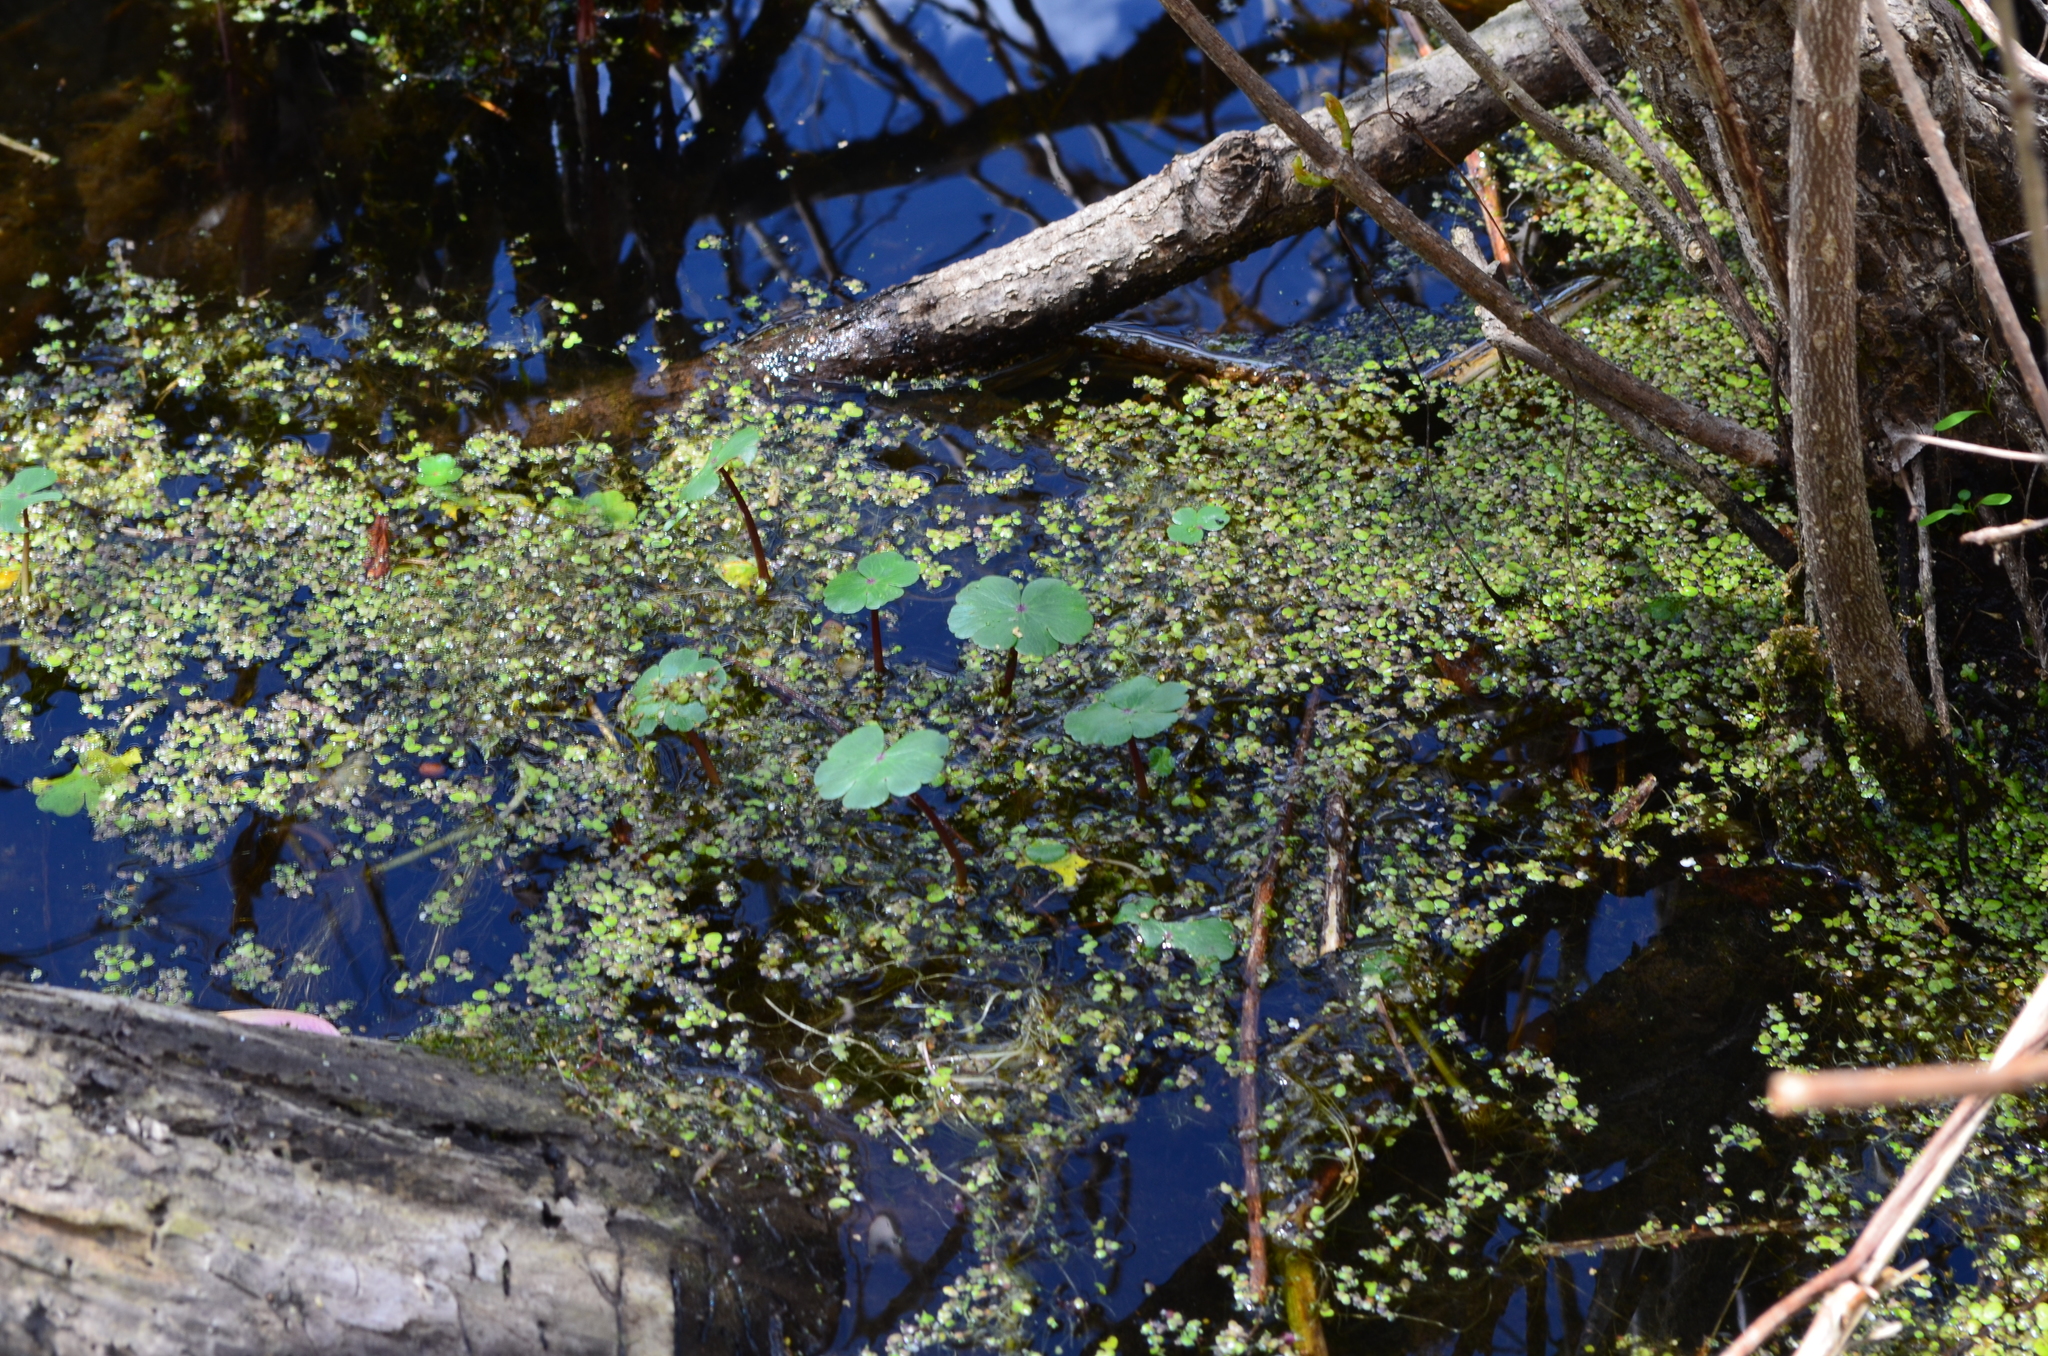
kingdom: Plantae
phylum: Tracheophyta
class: Magnoliopsida
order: Apiales
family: Araliaceae
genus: Hydrocotyle
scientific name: Hydrocotyle ranunculoides
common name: Floating pennywort
